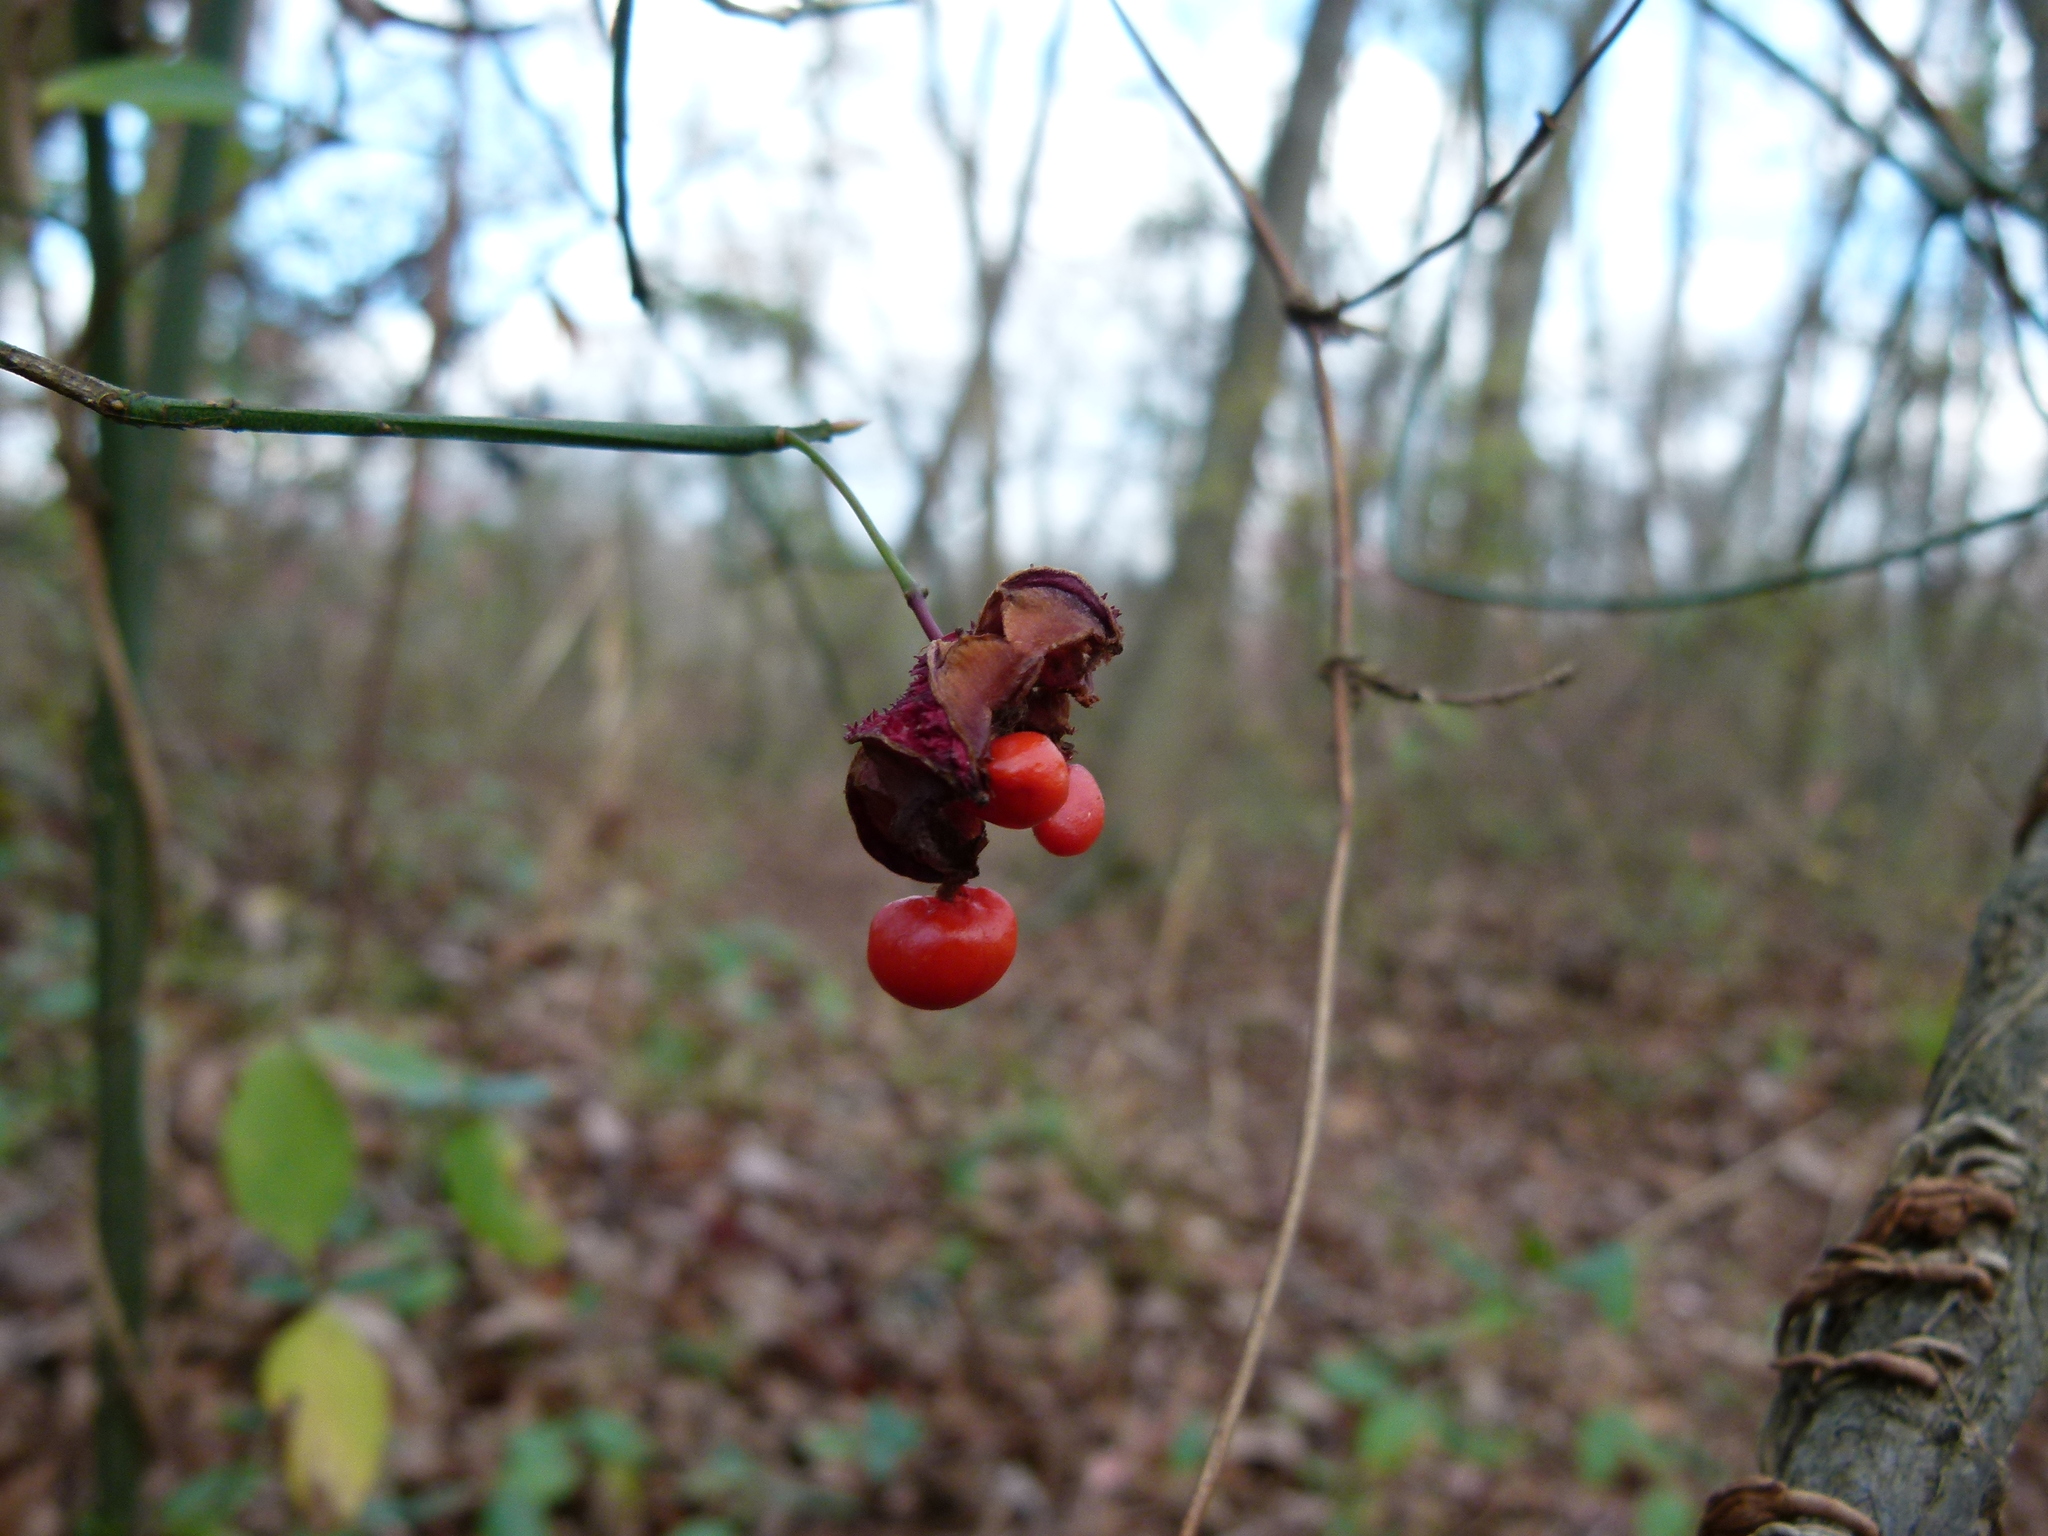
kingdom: Plantae
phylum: Tracheophyta
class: Magnoliopsida
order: Celastrales
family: Celastraceae
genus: Euonymus
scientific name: Euonymus americanus
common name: Bursting-heart
